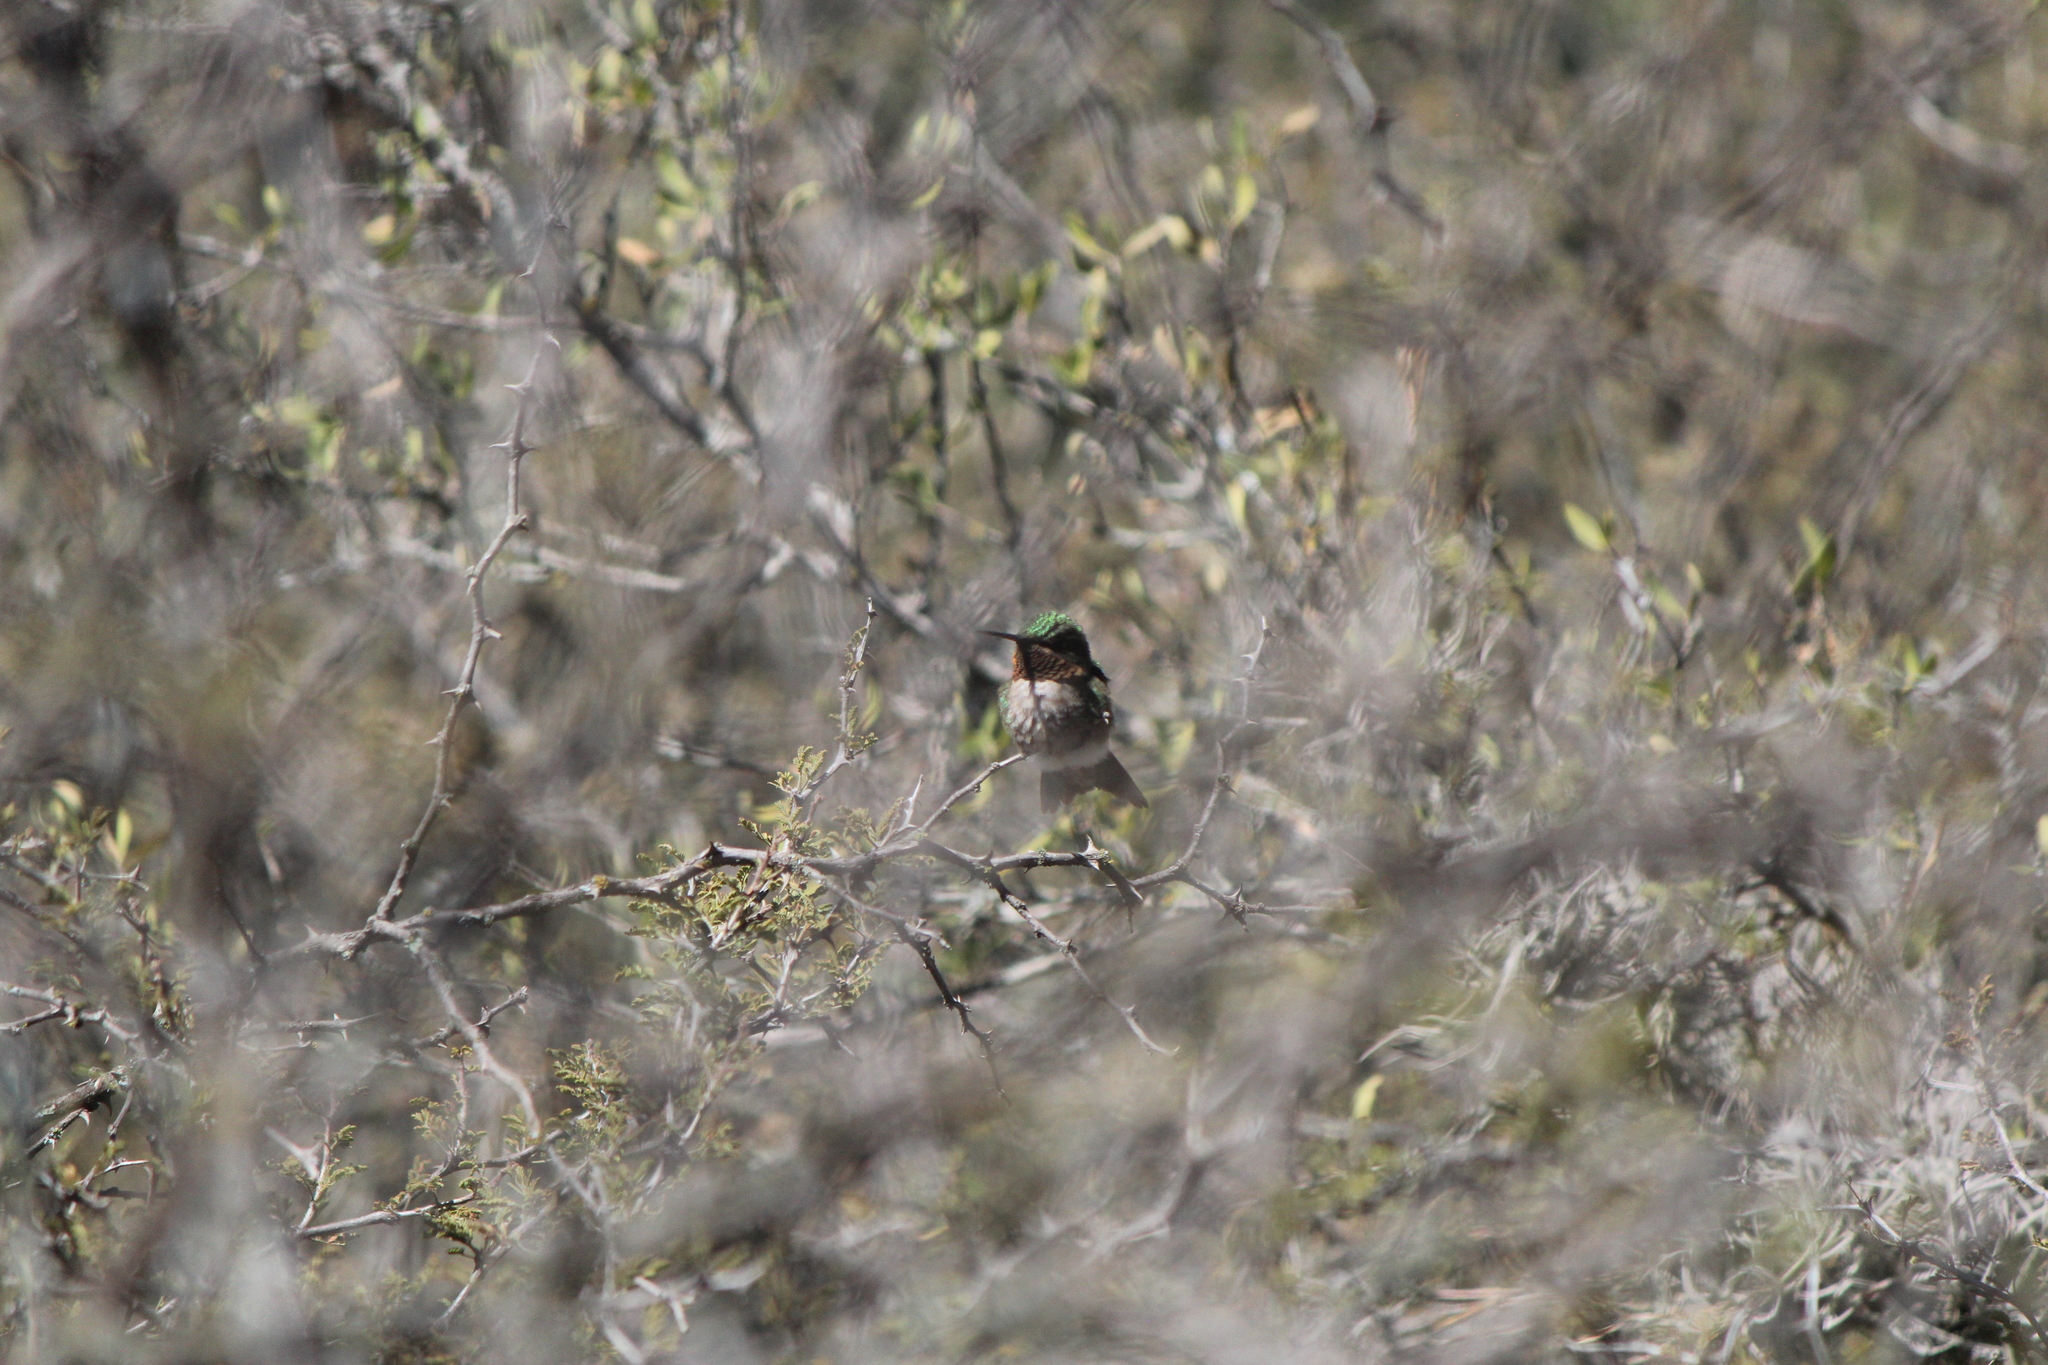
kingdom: Animalia
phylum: Chordata
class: Aves
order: Apodiformes
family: Trochilidae
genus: Archilochus
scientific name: Archilochus colubris
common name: Ruby-throated hummingbird
